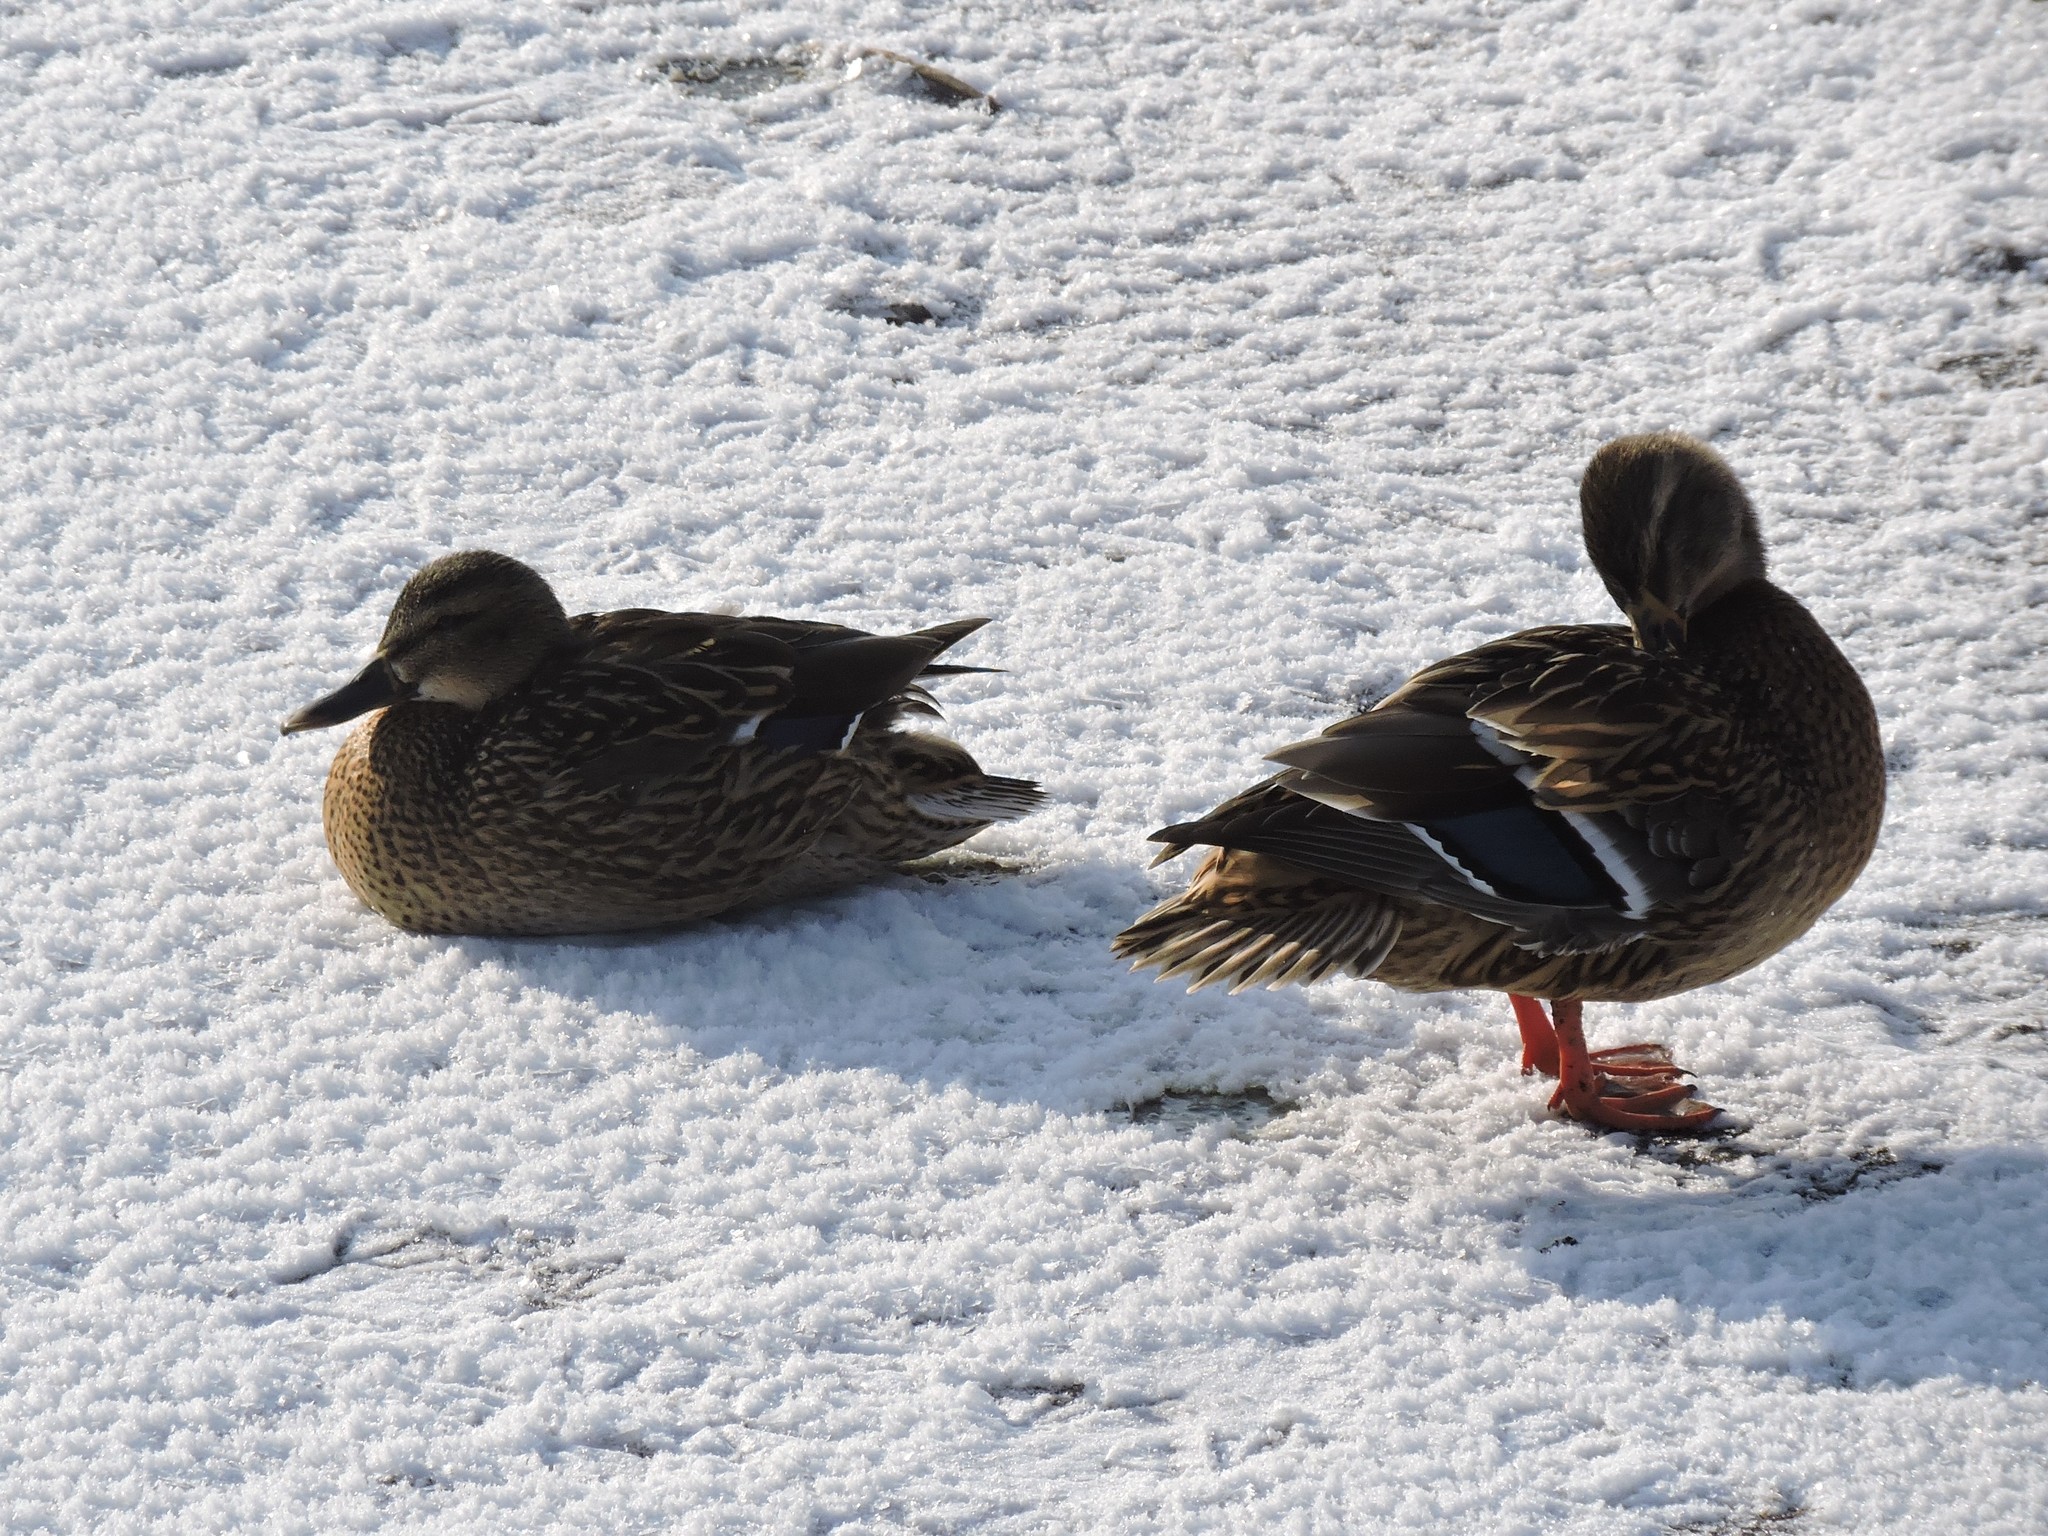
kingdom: Animalia
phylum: Chordata
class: Aves
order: Anseriformes
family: Anatidae
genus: Anas
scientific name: Anas platyrhynchos
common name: Mallard
